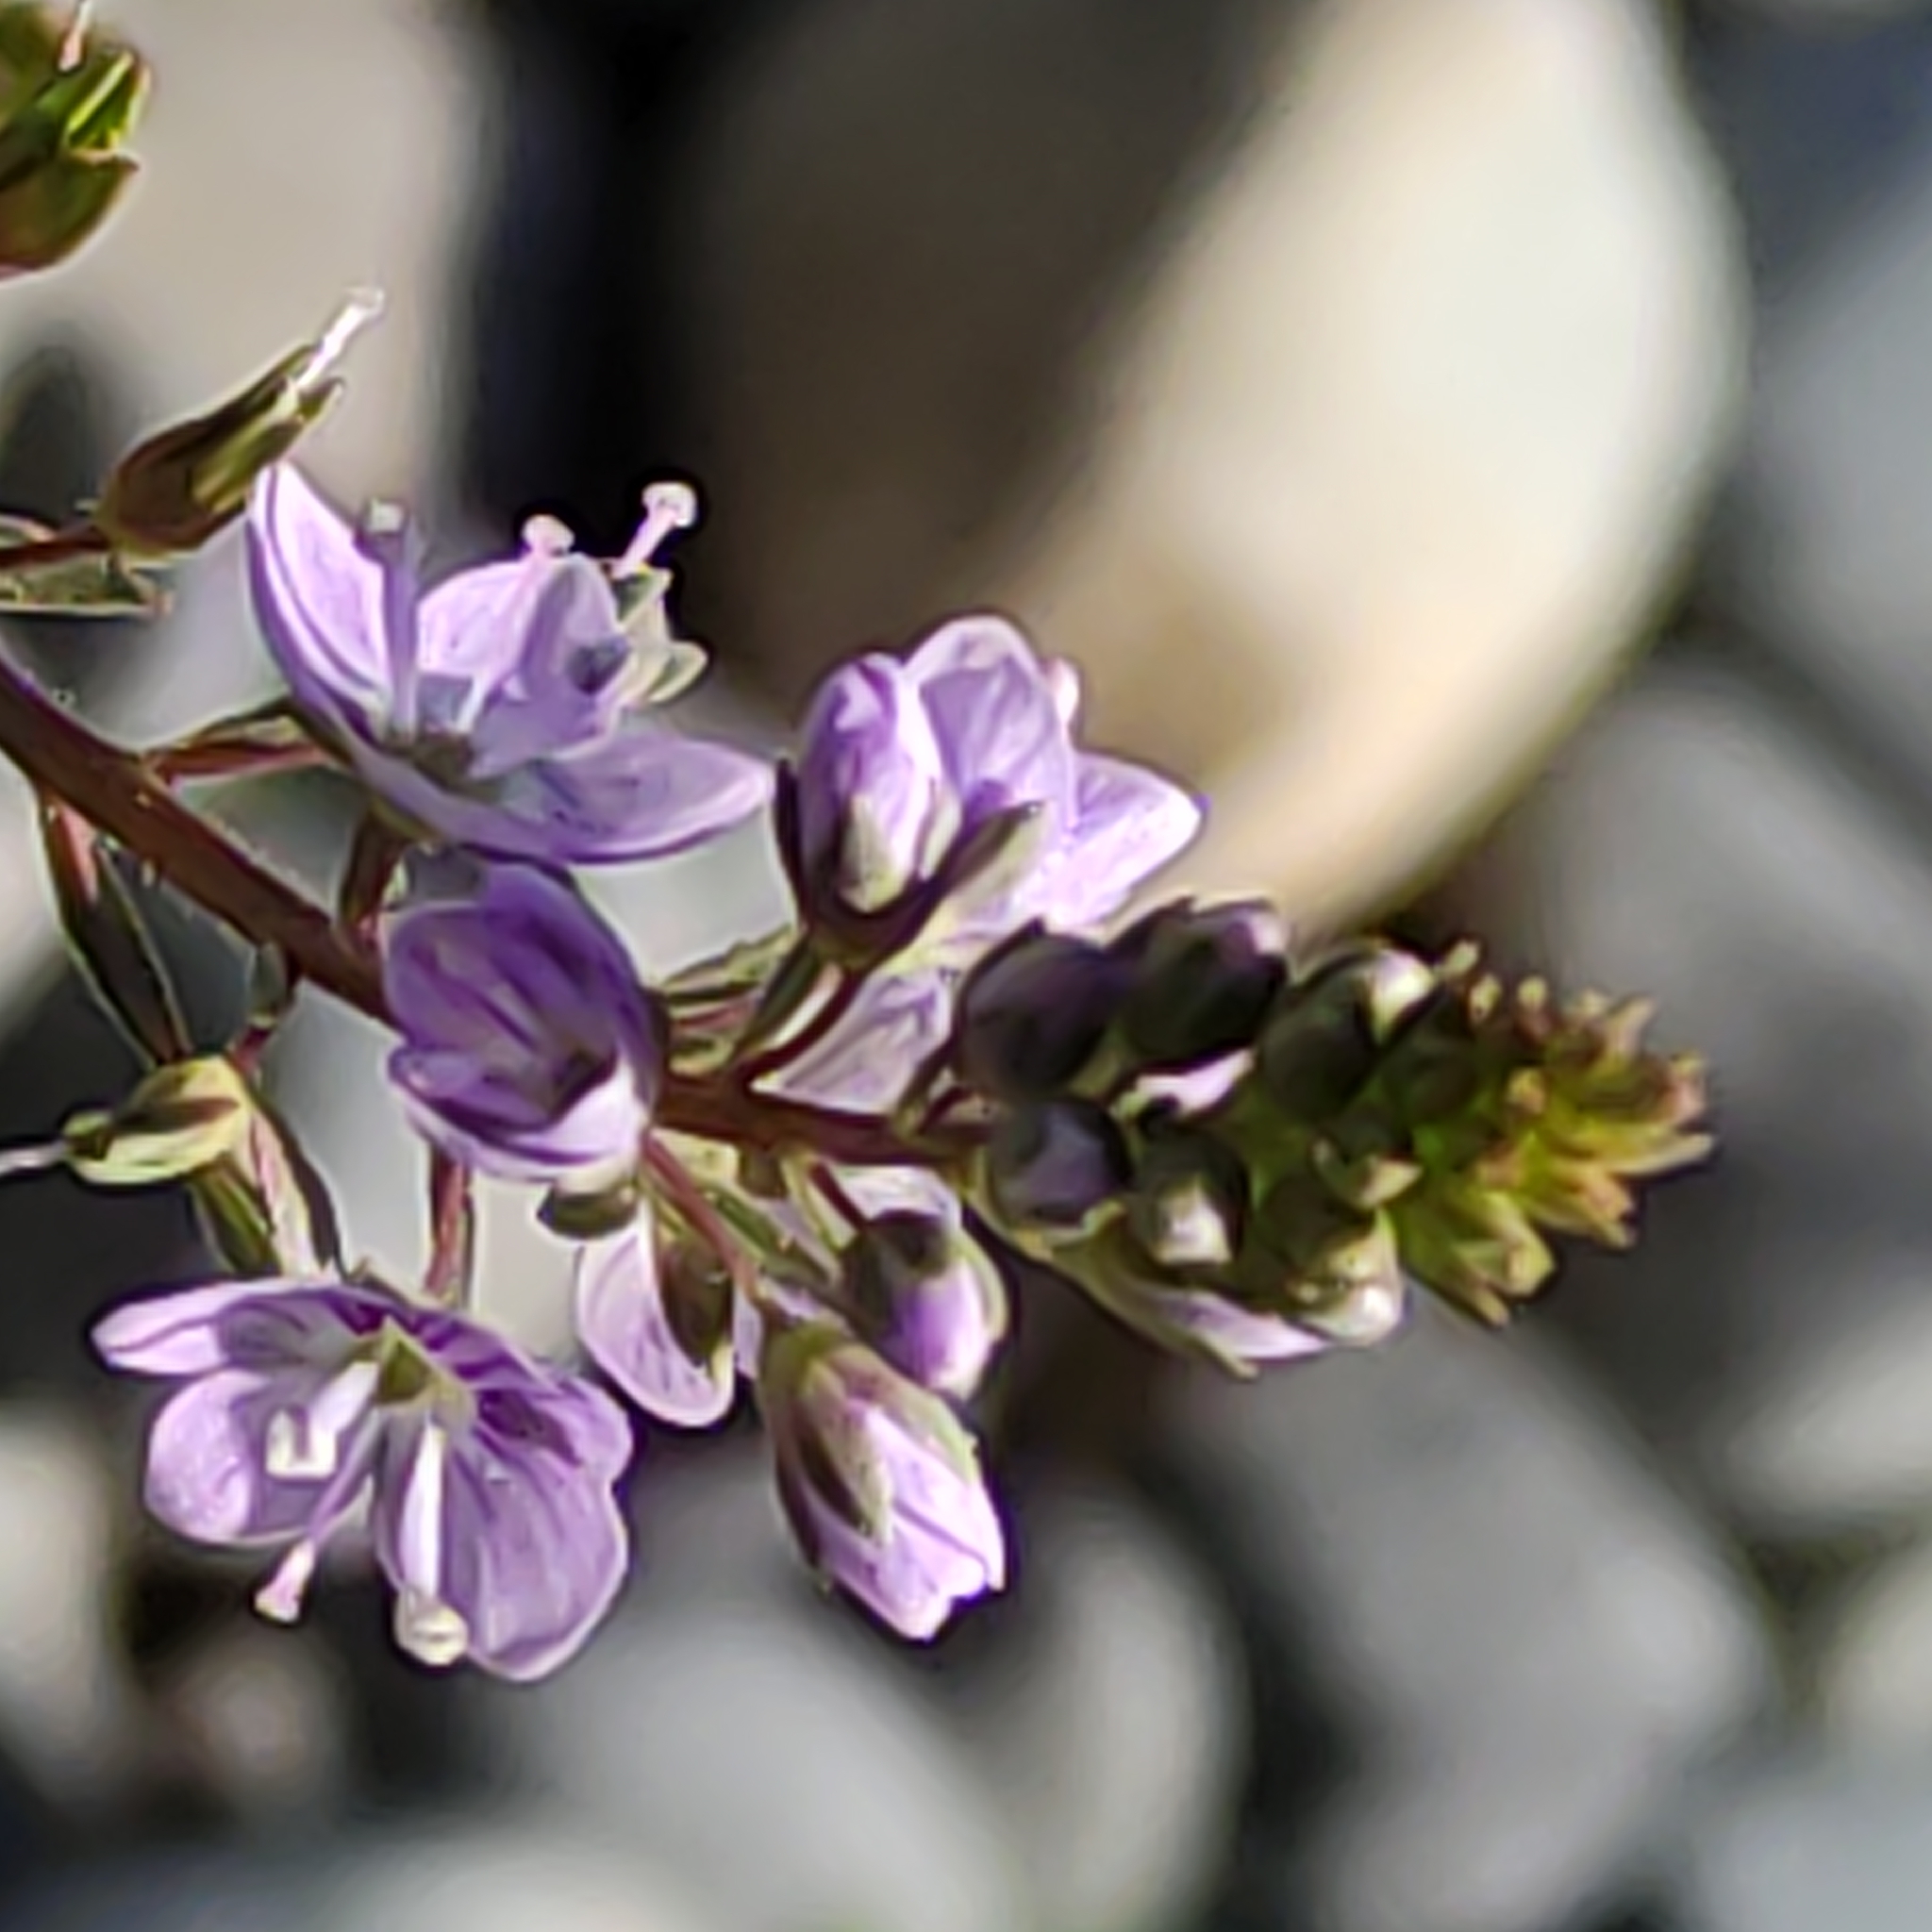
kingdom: Plantae
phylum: Tracheophyta
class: Magnoliopsida
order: Lamiales
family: Plantaginaceae
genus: Veronica
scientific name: Veronica anagallis-aquatica
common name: Water speedwell
